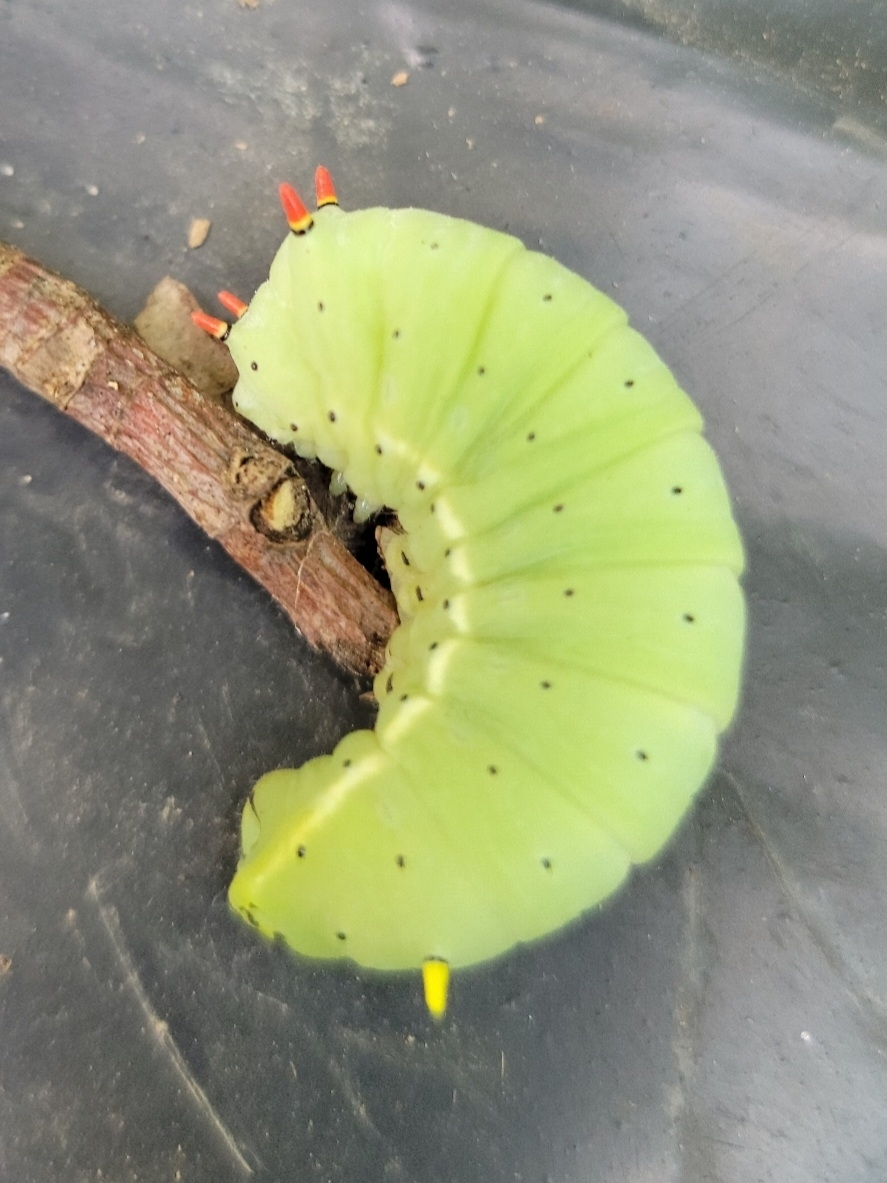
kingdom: Animalia
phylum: Arthropoda
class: Insecta
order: Lepidoptera
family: Saturniidae
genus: Callosamia
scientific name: Callosamia angulifera
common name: Tulip tree silkmoth
